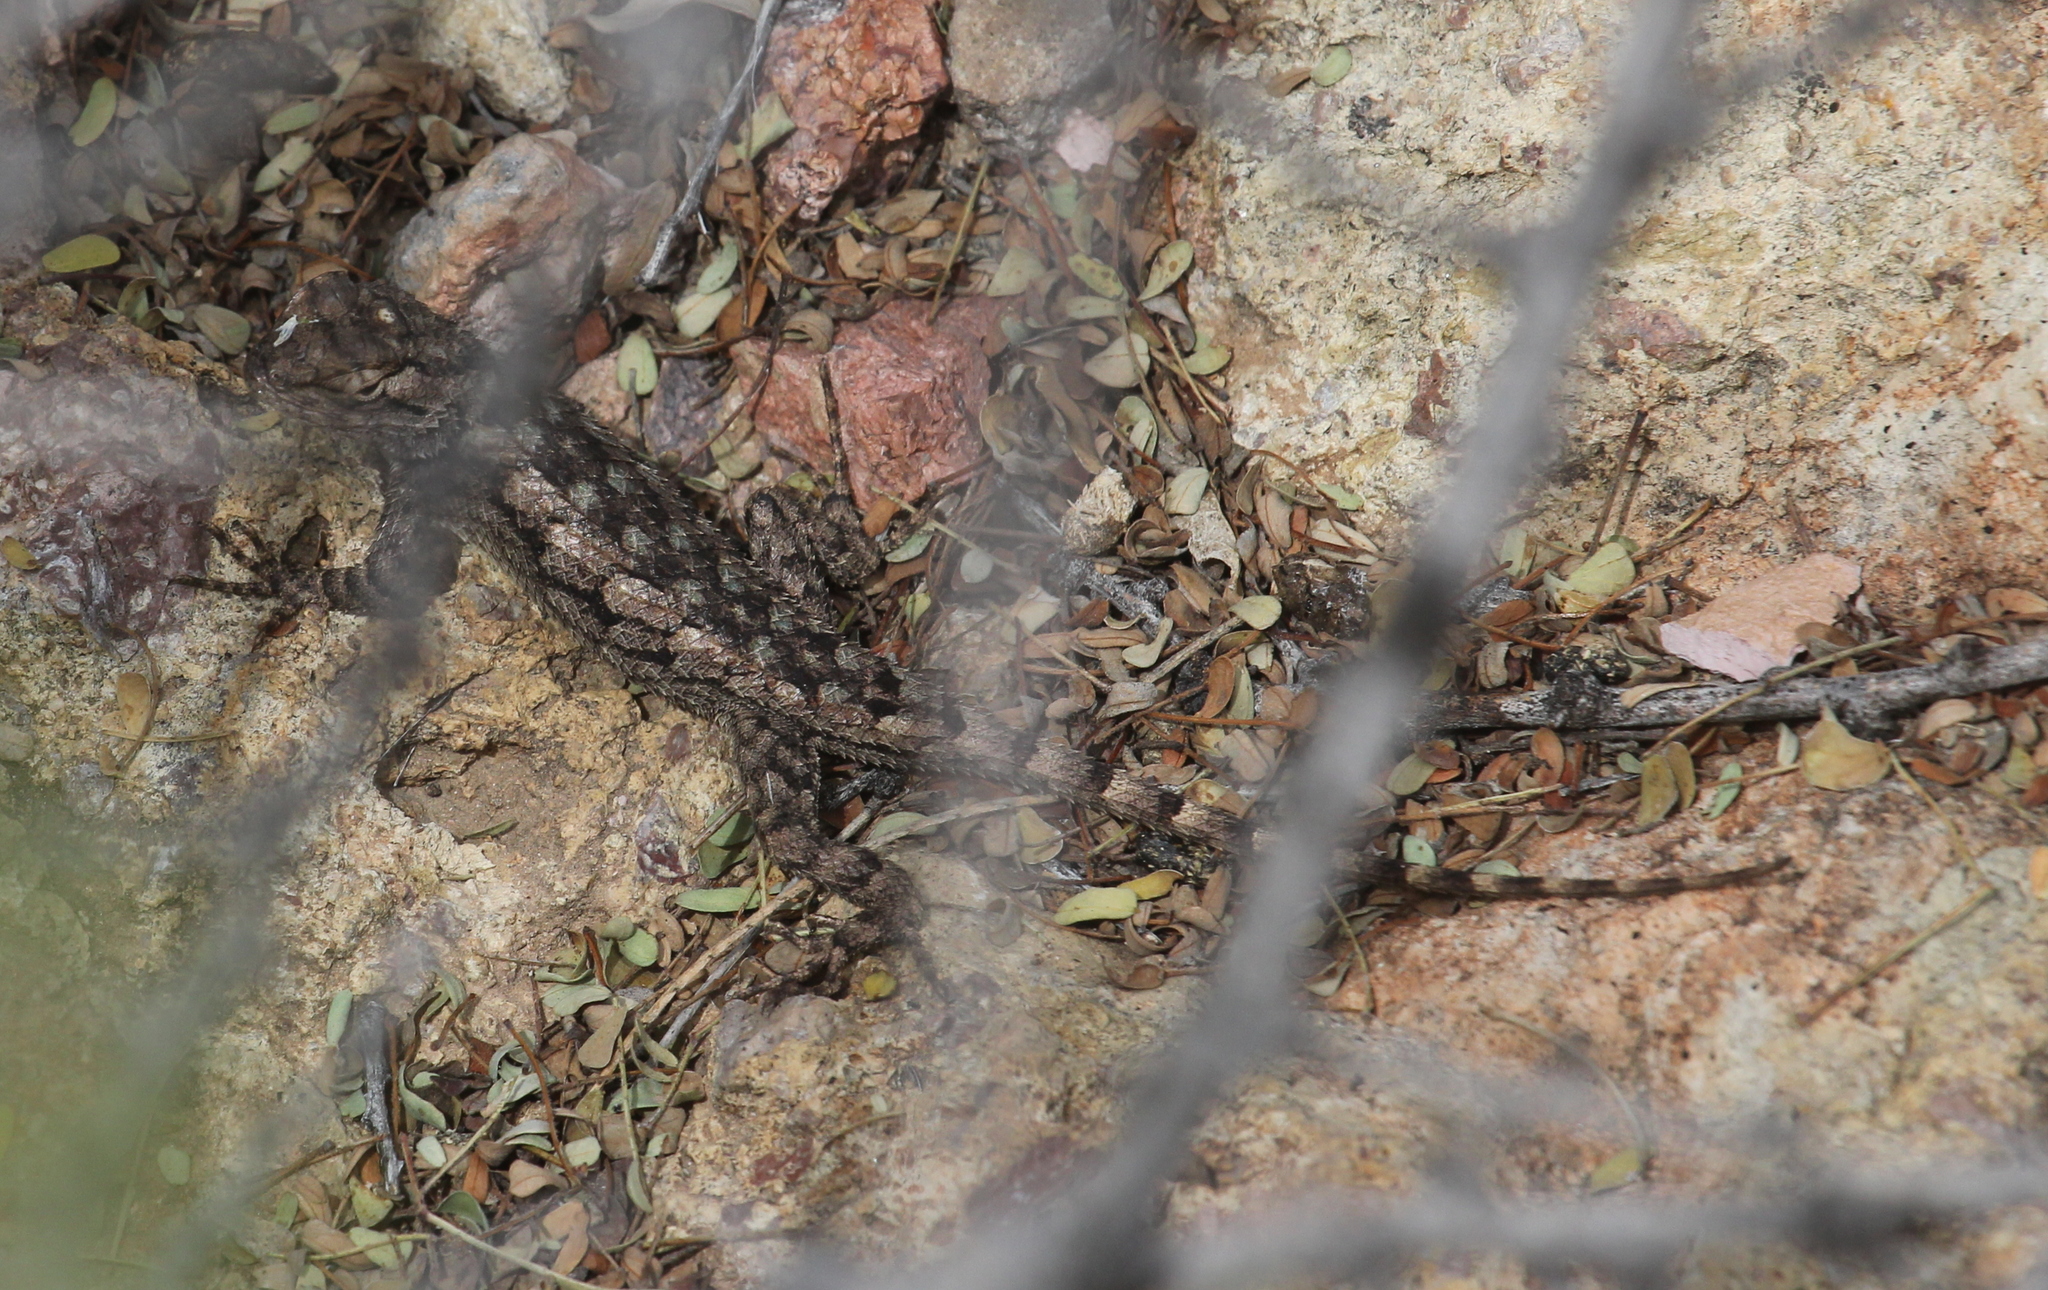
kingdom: Animalia
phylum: Chordata
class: Squamata
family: Phrynosomatidae
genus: Sceloporus
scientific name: Sceloporus clarkii
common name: Clark's spiny lizard
